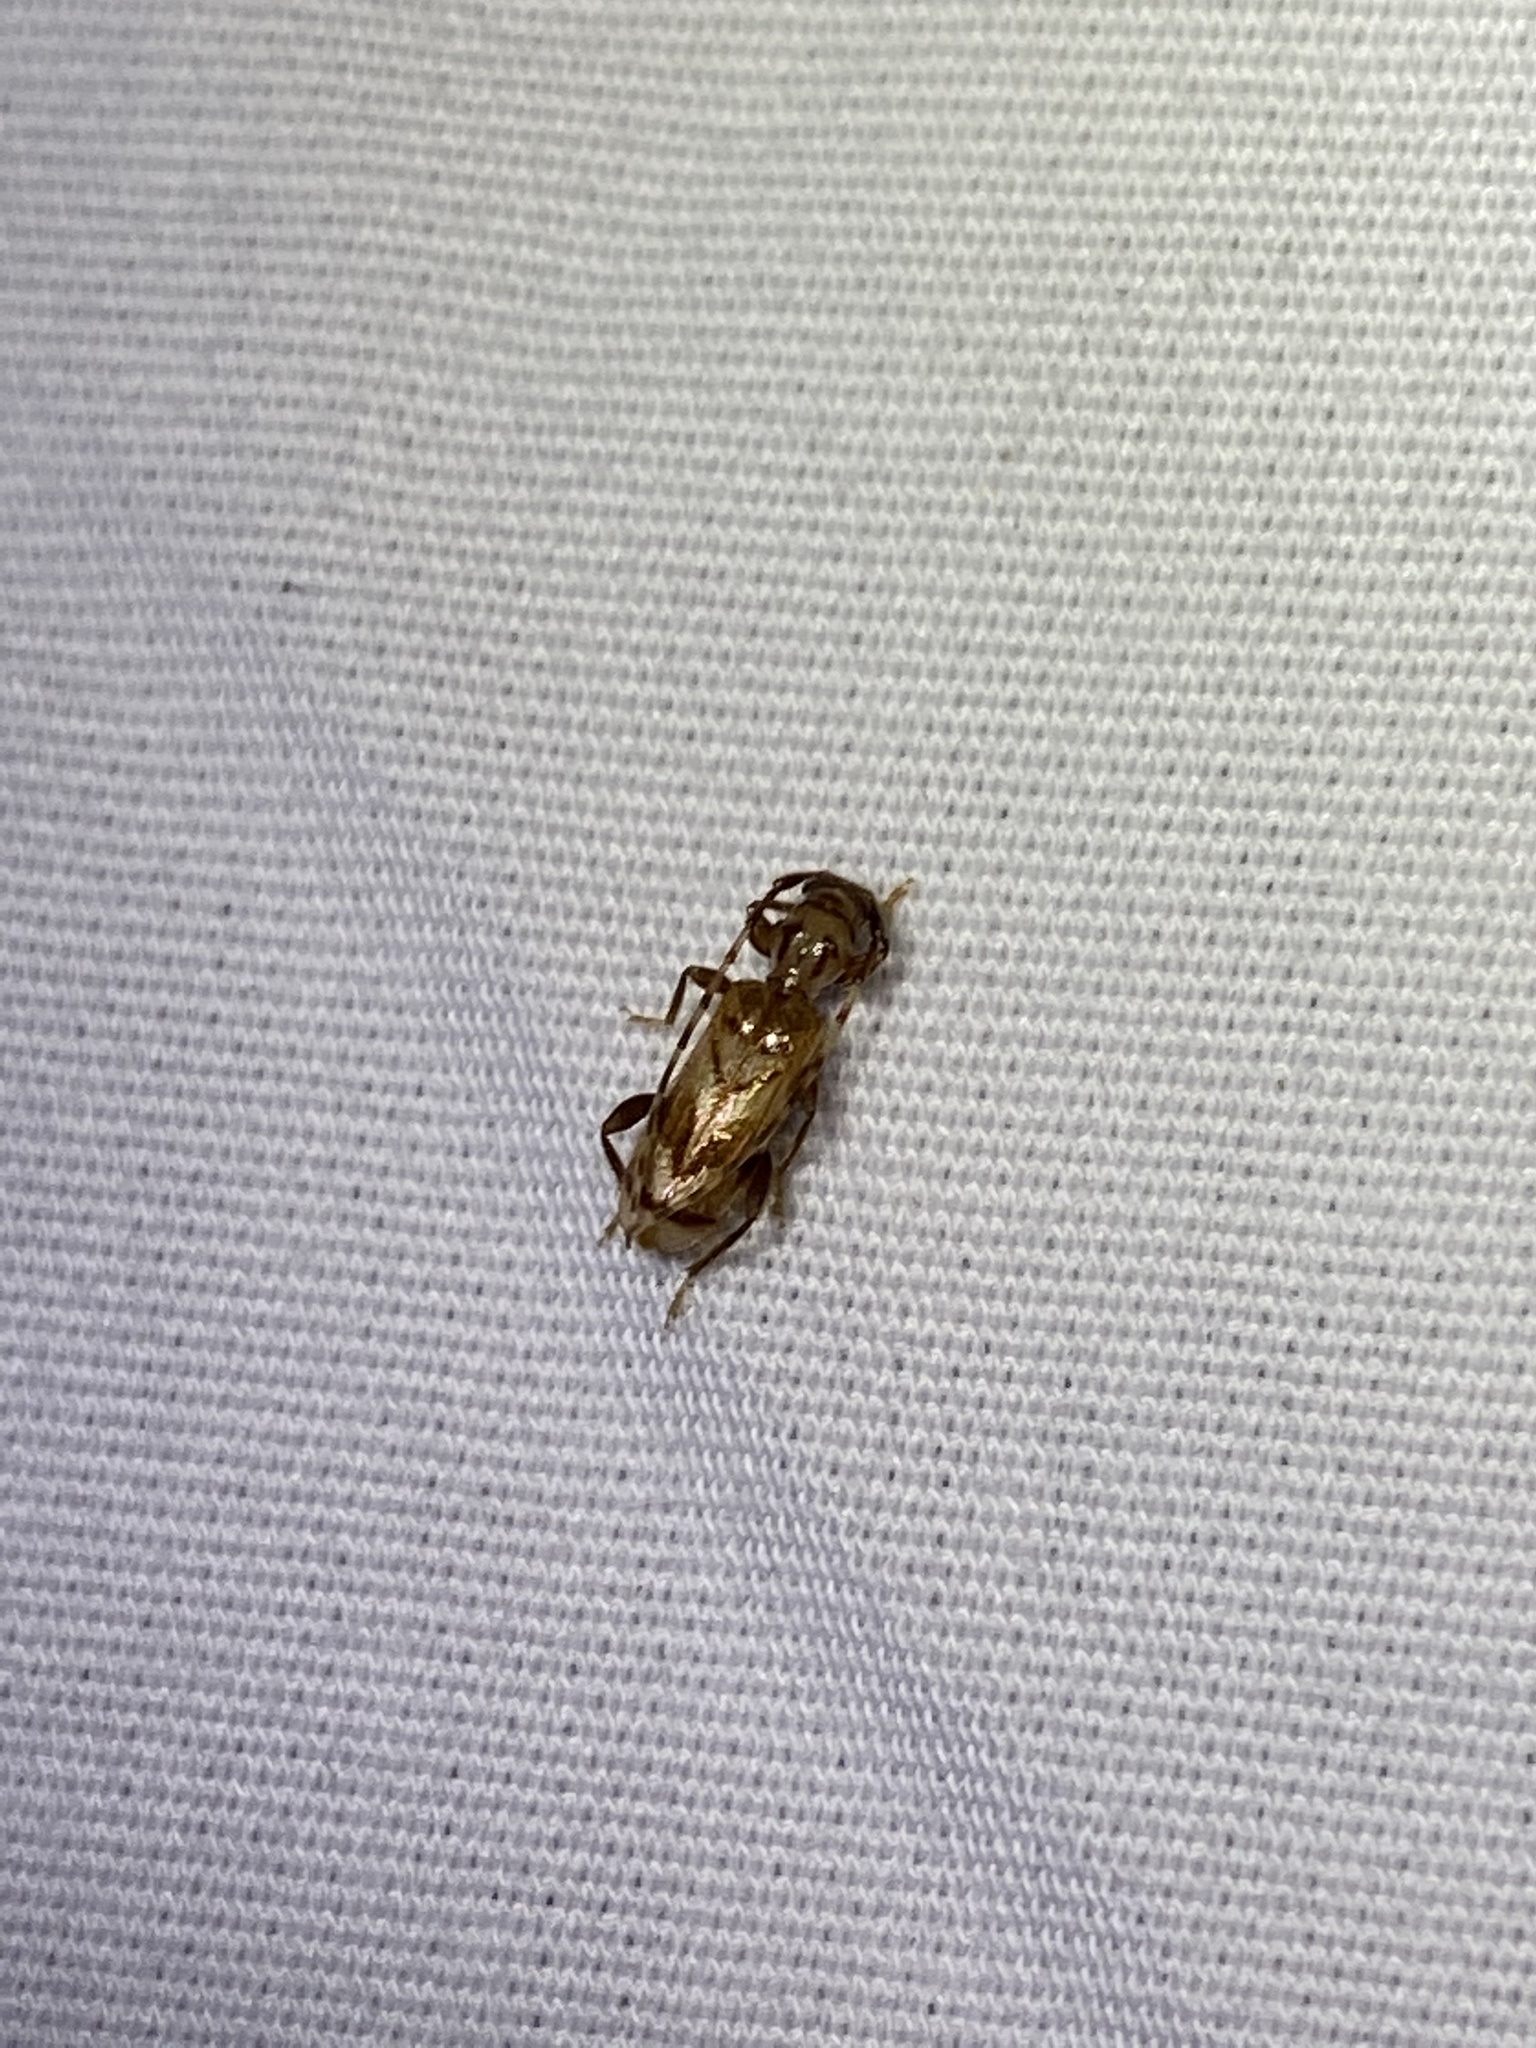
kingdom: Animalia
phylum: Arthropoda
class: Insecta
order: Coleoptera
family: Cerambycidae
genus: Obrium
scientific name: Obrium maculatum
